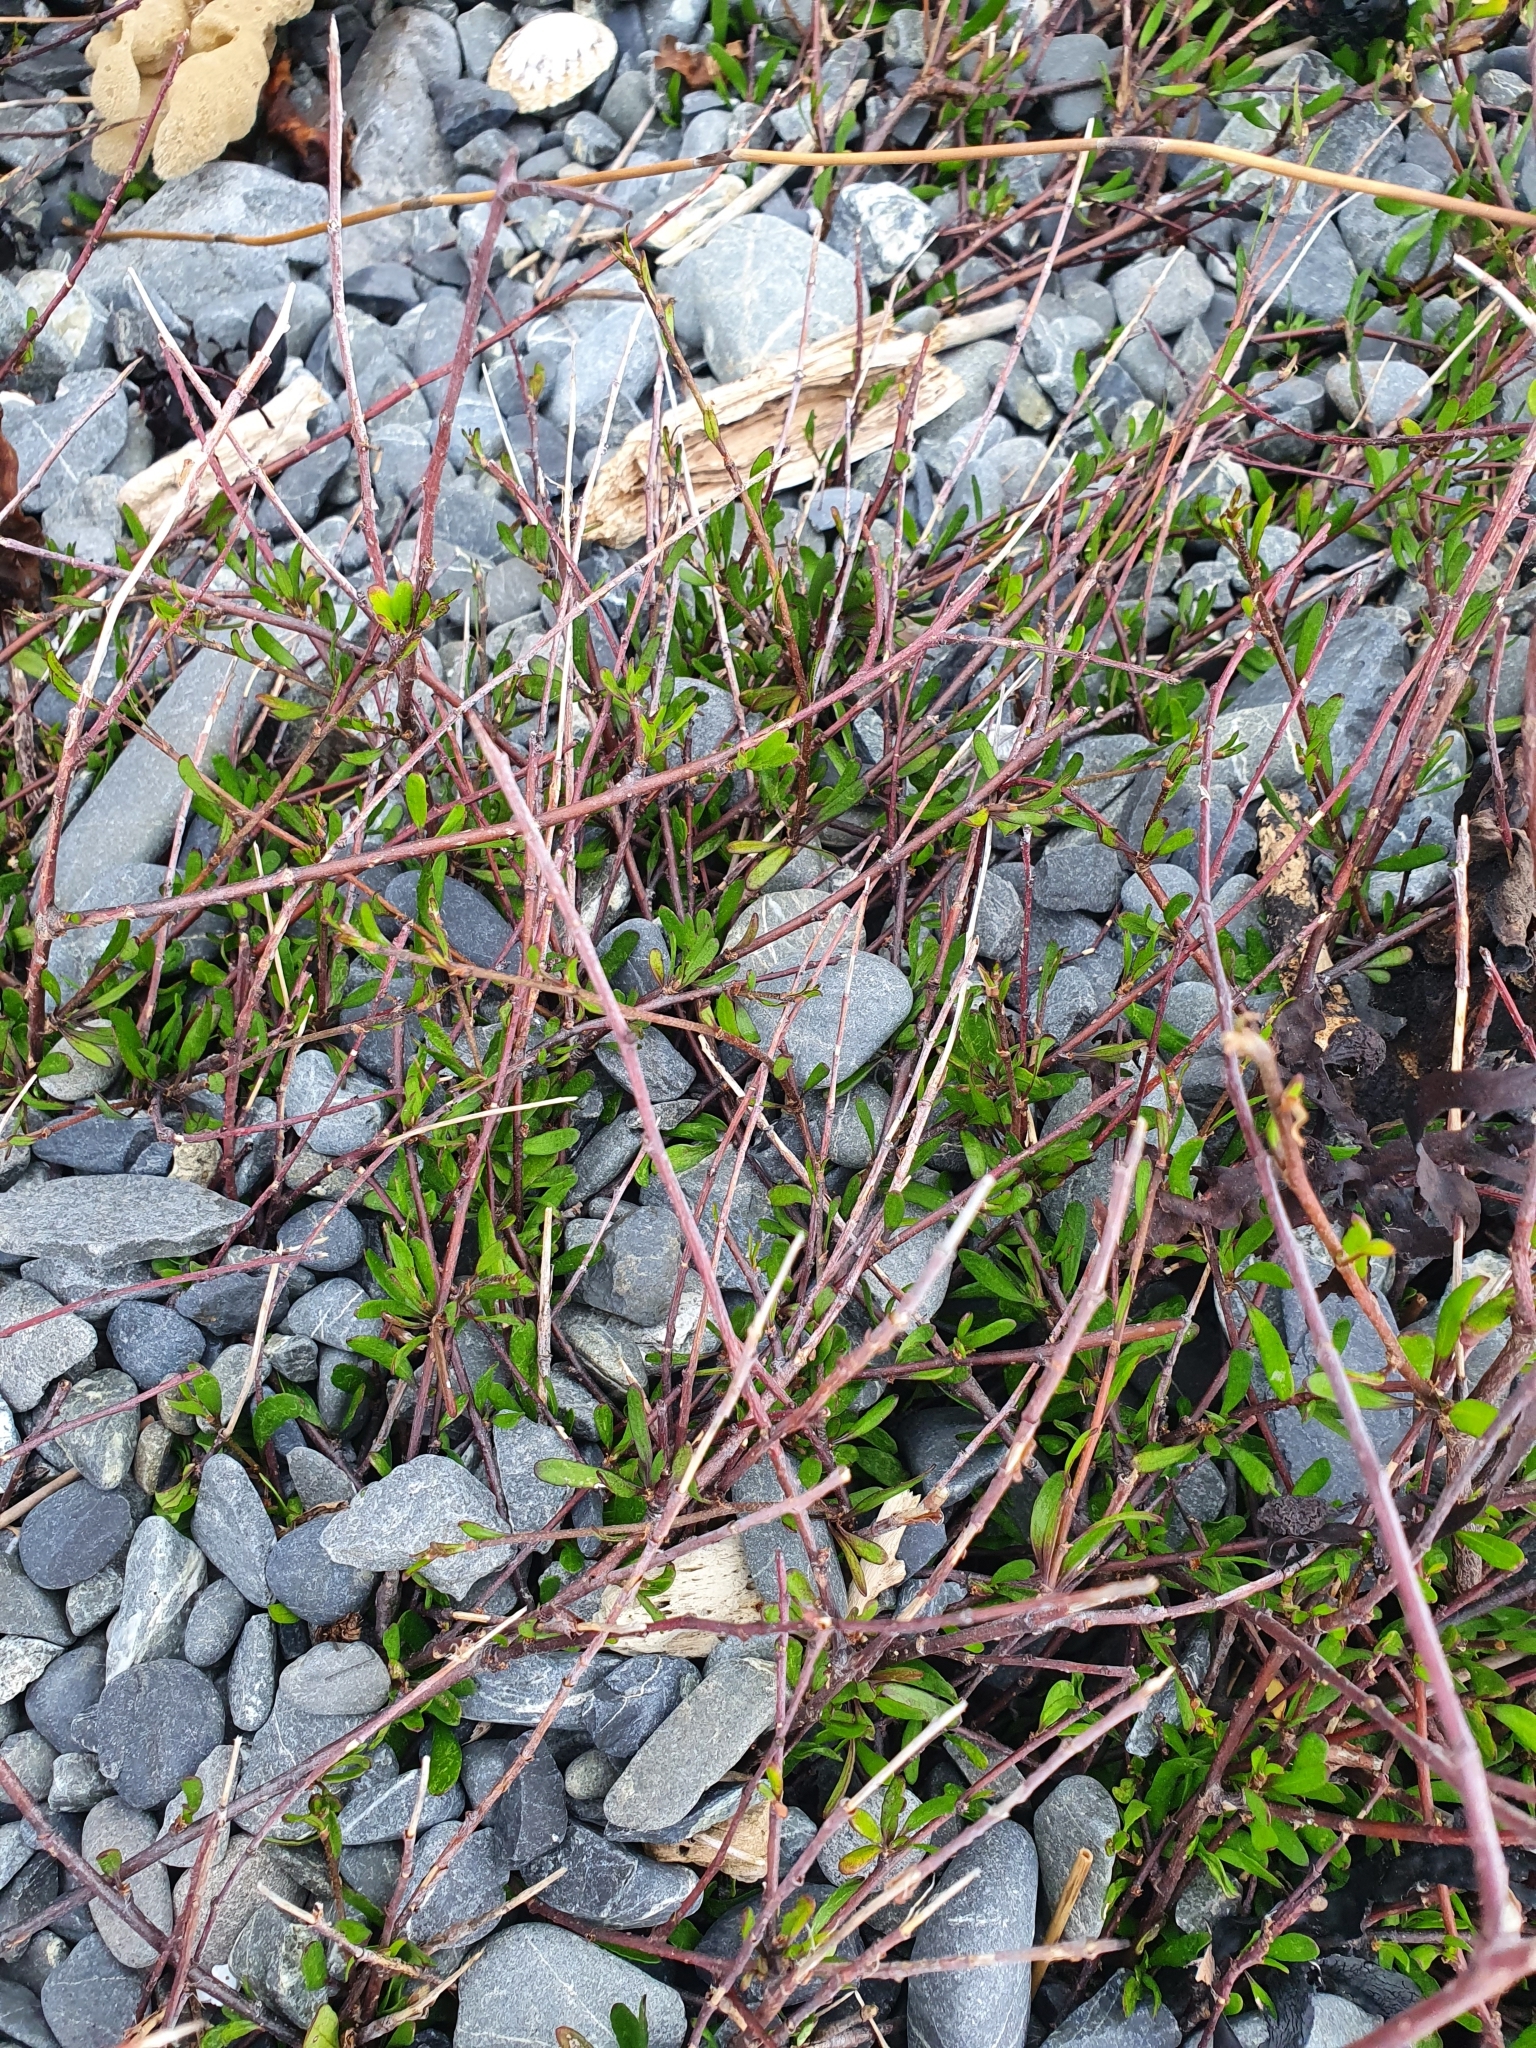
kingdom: Plantae
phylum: Tracheophyta
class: Magnoliopsida
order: Malvales
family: Malvaceae
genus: Plagianthus
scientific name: Plagianthus divaricatus
